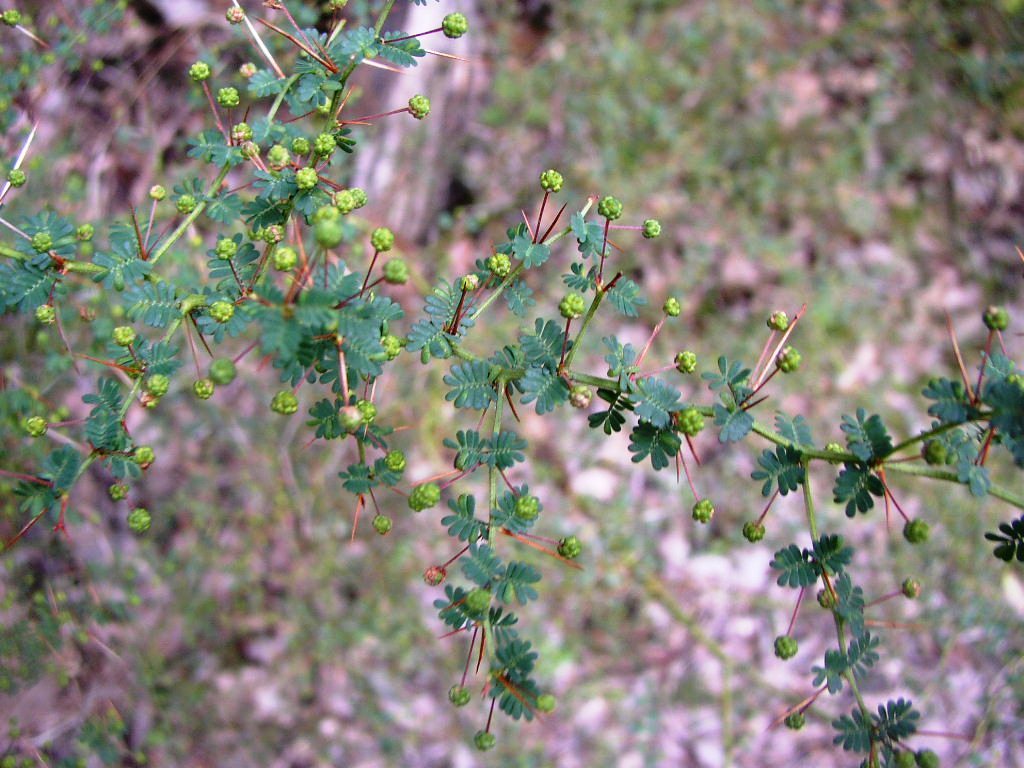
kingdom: Plantae
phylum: Tracheophyta
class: Magnoliopsida
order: Fabales
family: Fabaceae
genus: Acacia
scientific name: Acacia pulchella
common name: Prickly moses
